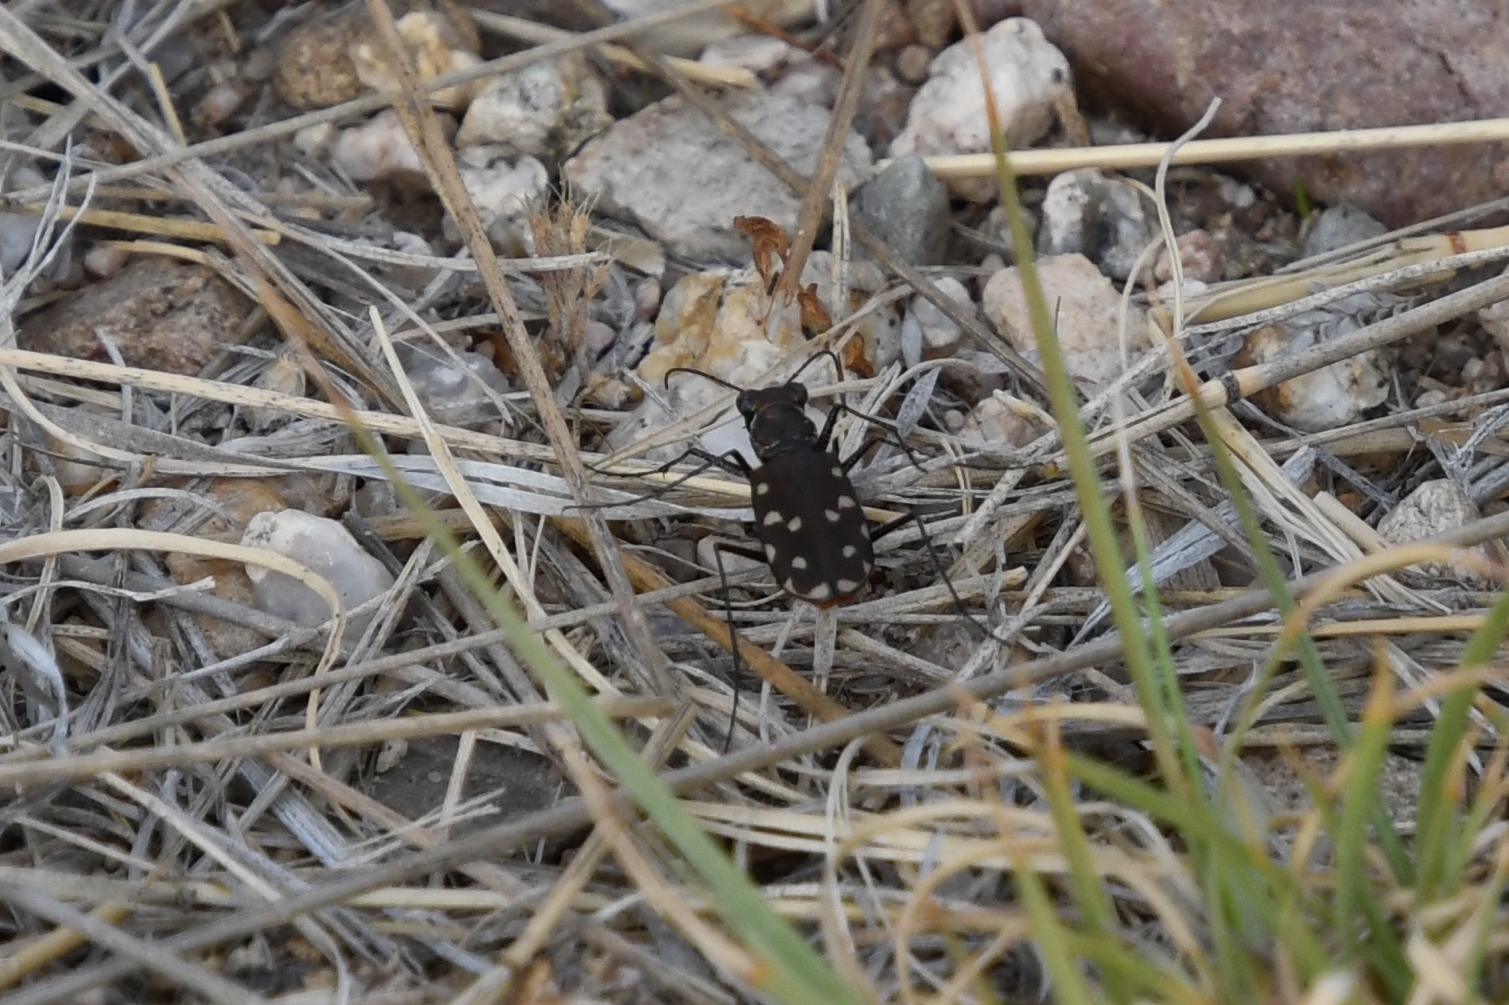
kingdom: Animalia
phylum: Arthropoda
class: Insecta
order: Coleoptera
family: Carabidae
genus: Cicindela
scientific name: Cicindela sedecimpunctata
